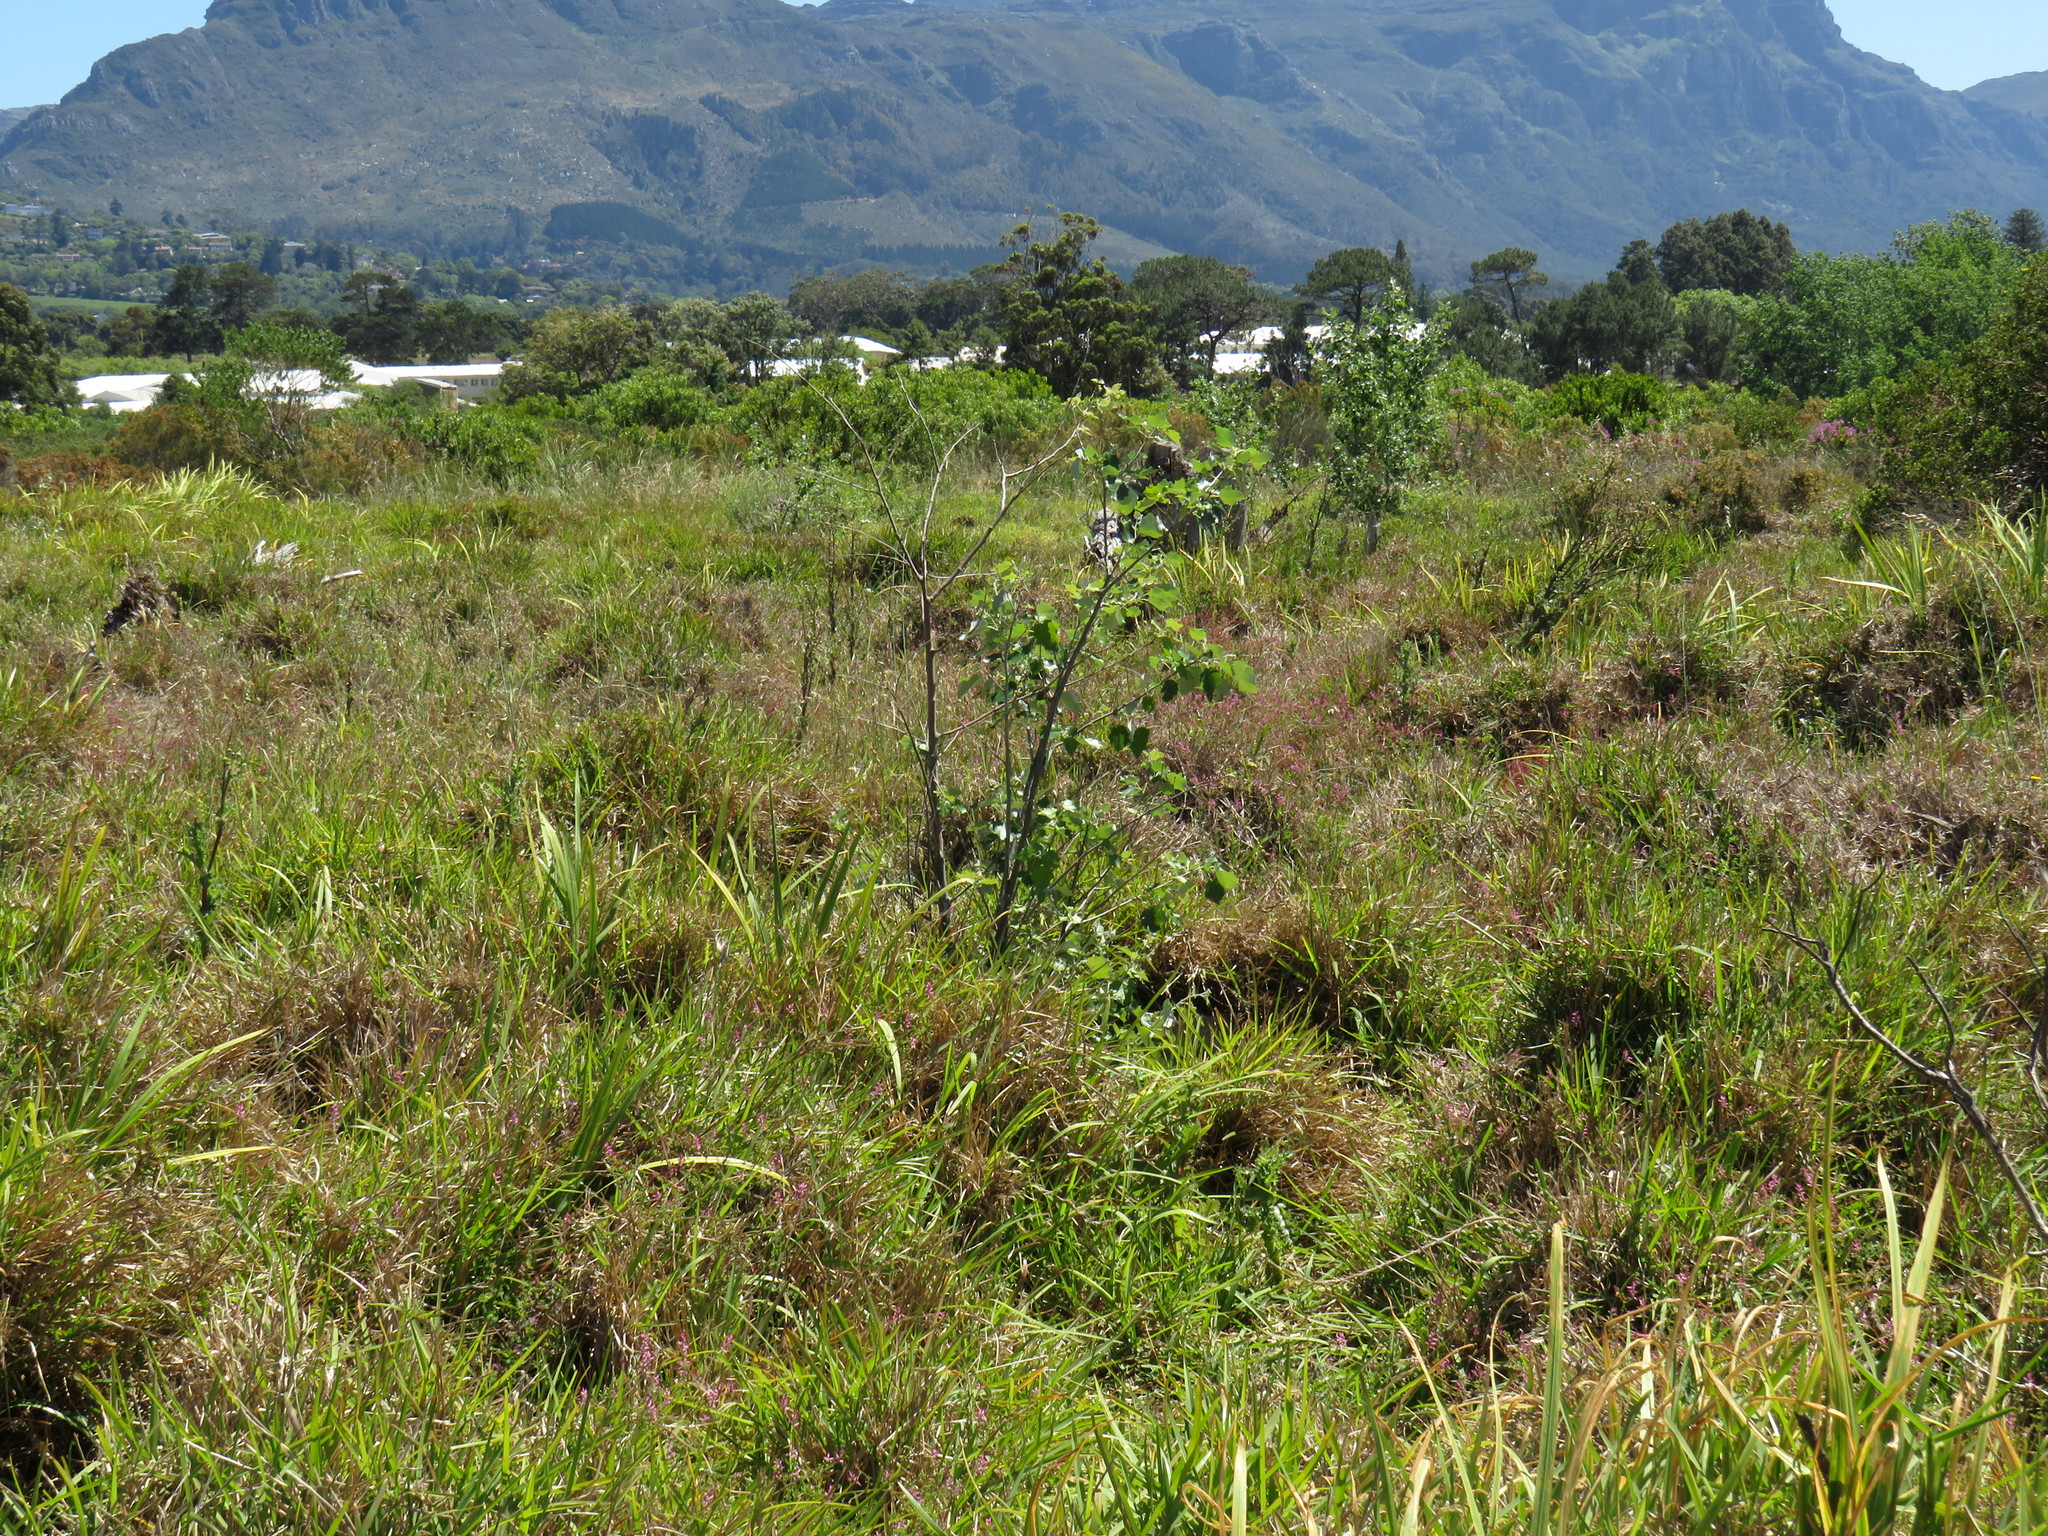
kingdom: Plantae
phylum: Tracheophyta
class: Magnoliopsida
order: Malpighiales
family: Salicaceae
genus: Populus
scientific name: Populus canescens
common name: Gray poplar
